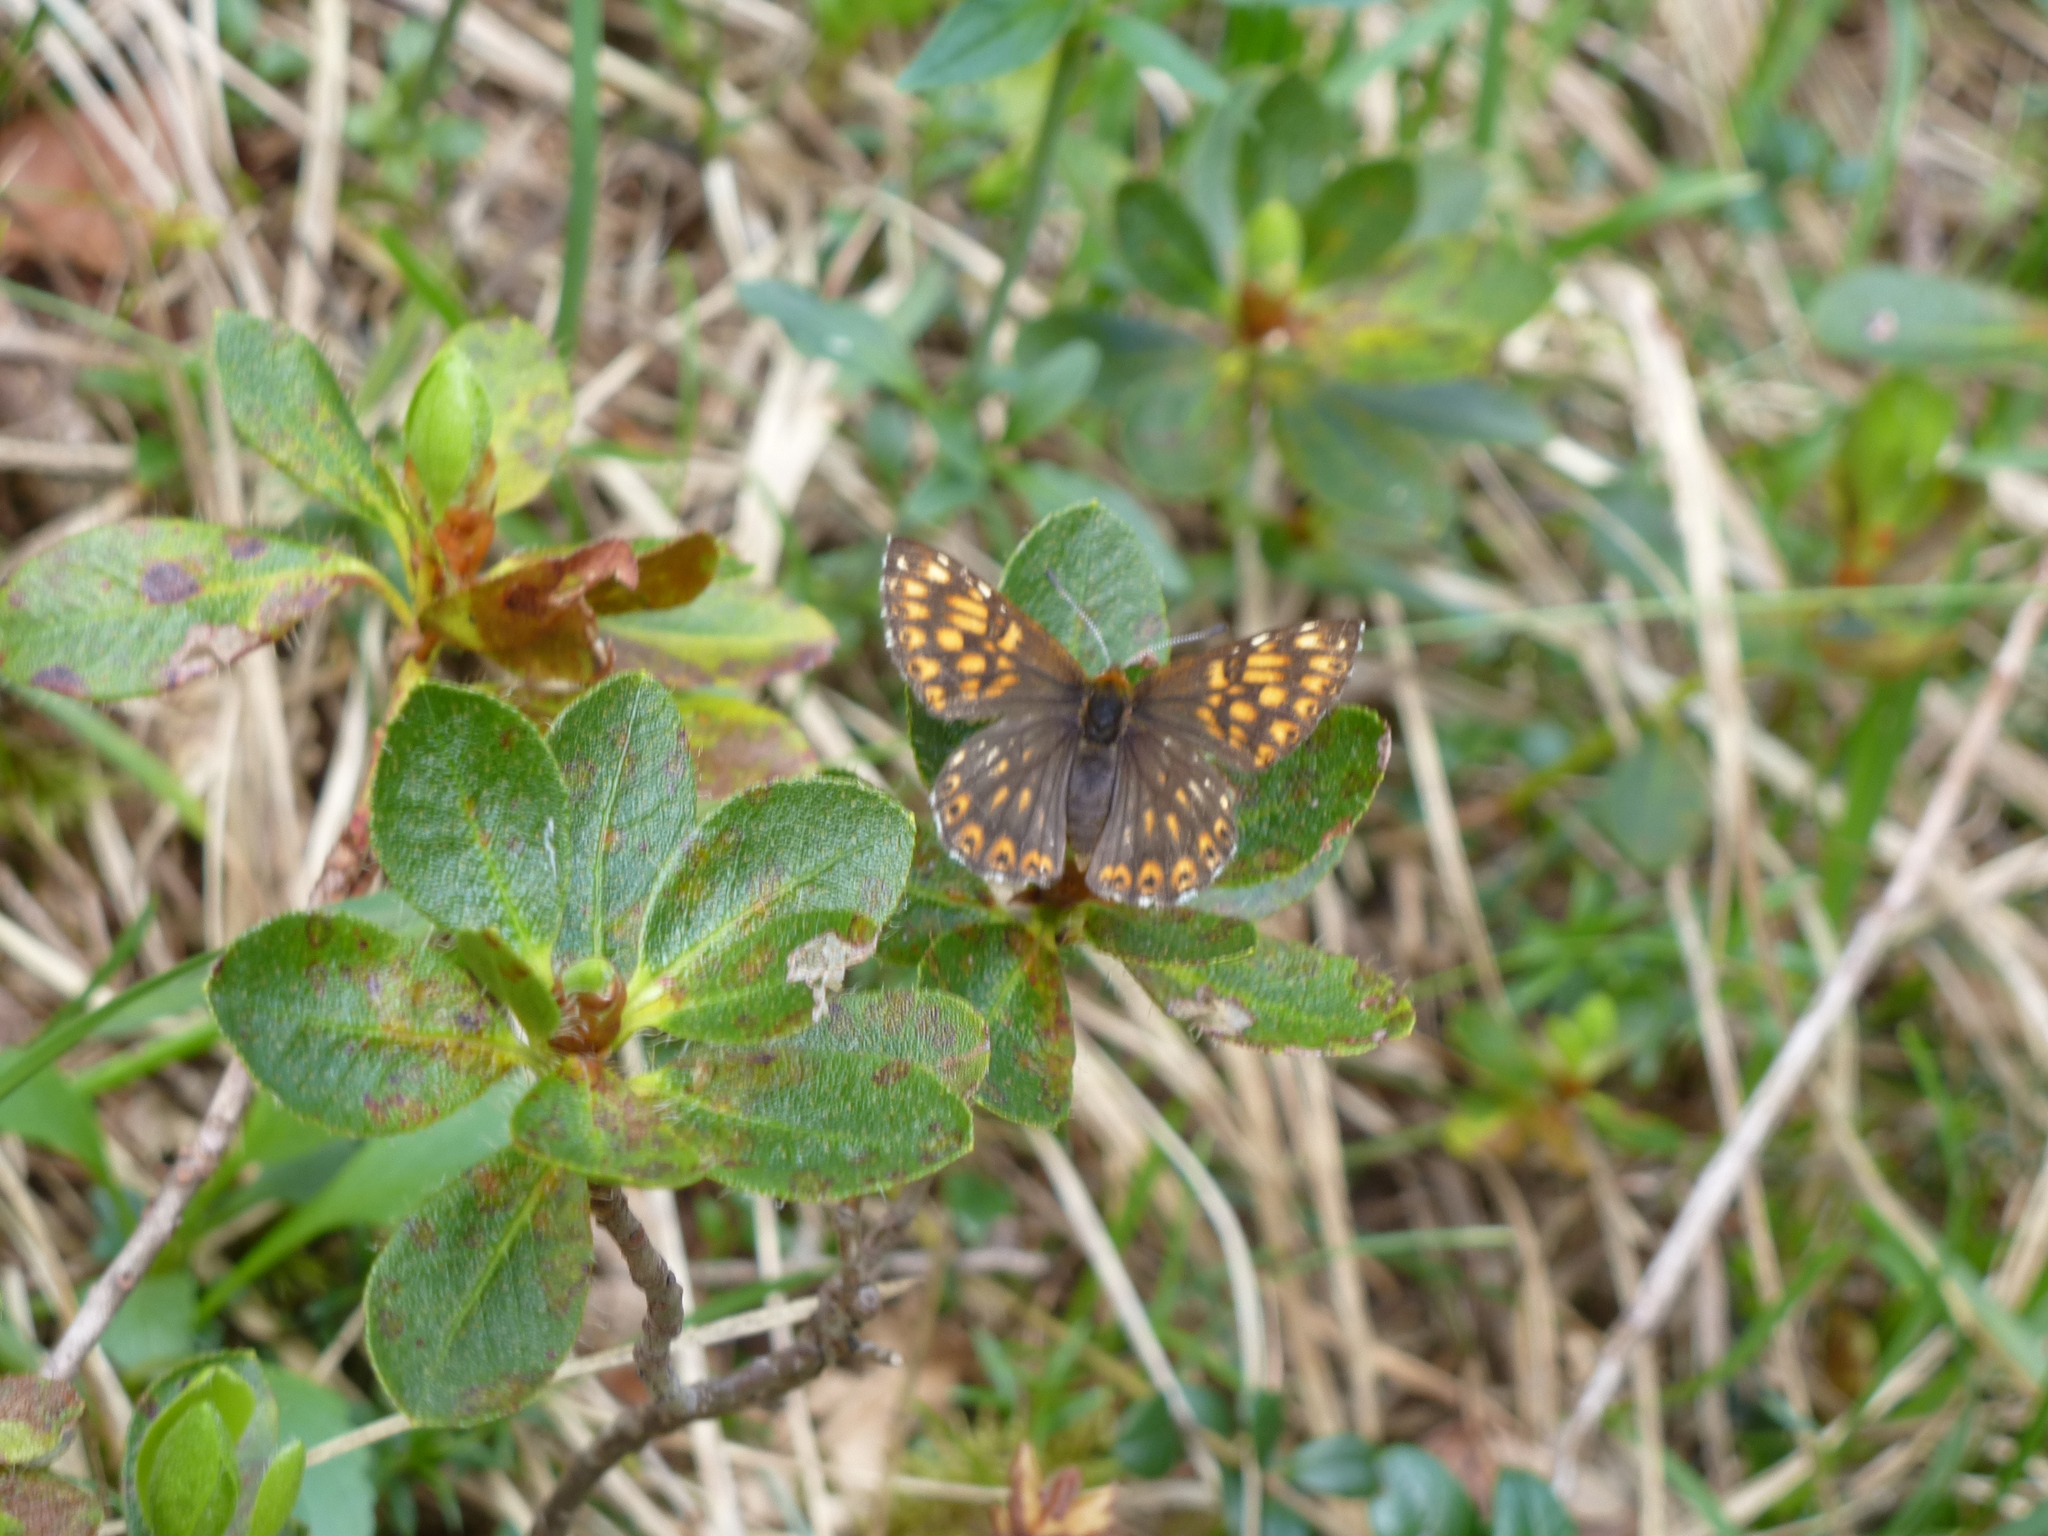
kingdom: Animalia
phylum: Arthropoda
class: Insecta
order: Lepidoptera
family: Riodinidae
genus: Hamearis
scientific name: Hamearis lucina
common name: Duke of burgundy fritillary
